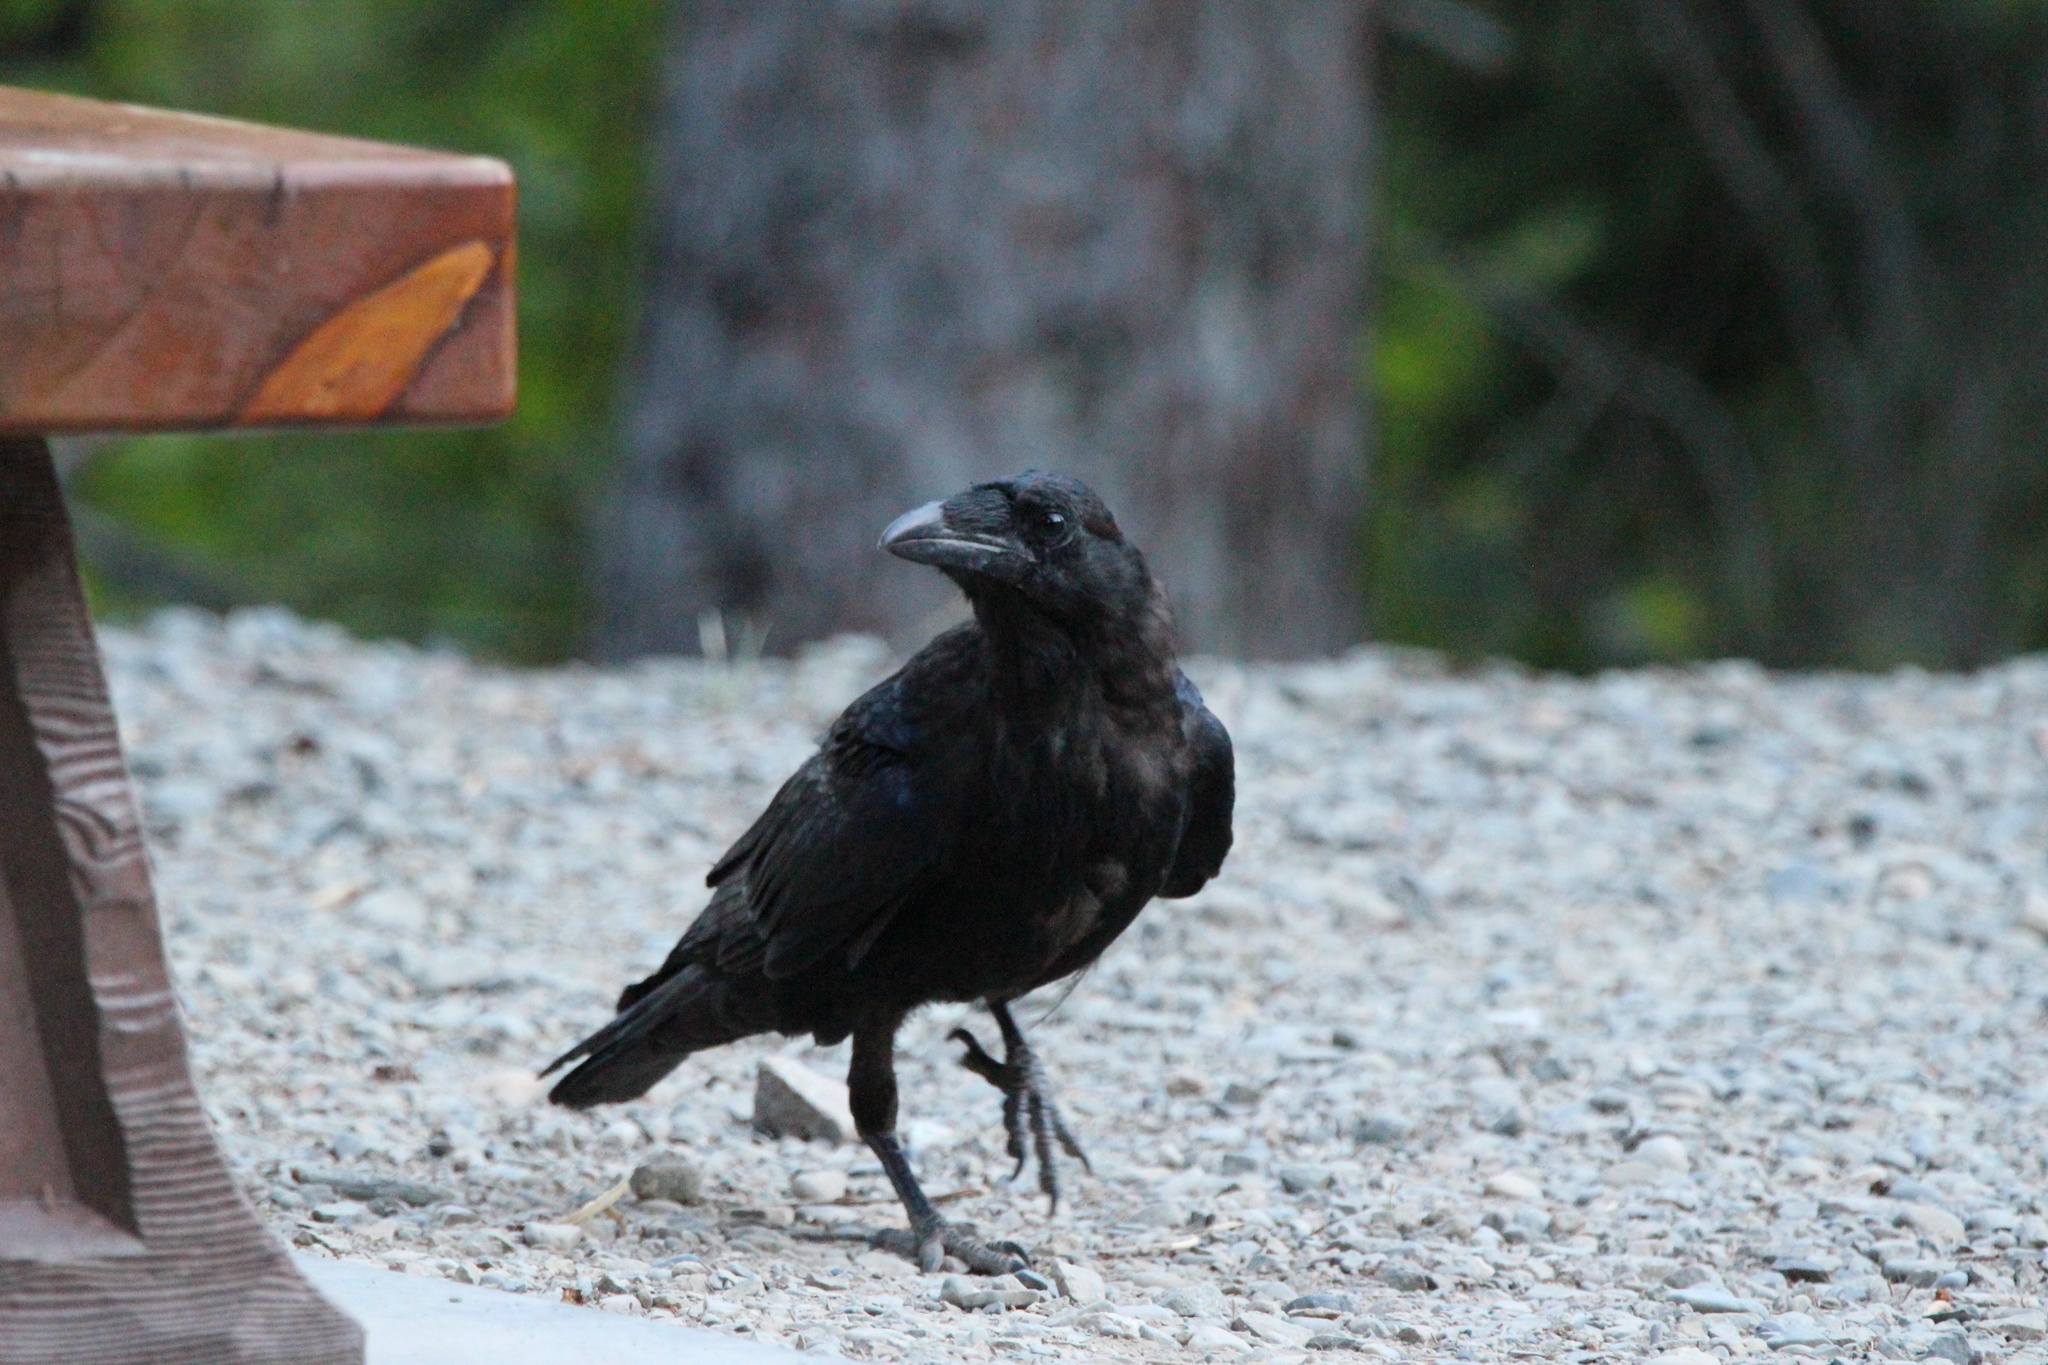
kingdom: Animalia
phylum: Chordata
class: Aves
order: Passeriformes
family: Corvidae
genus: Corvus
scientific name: Corvus corax
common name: Common raven
